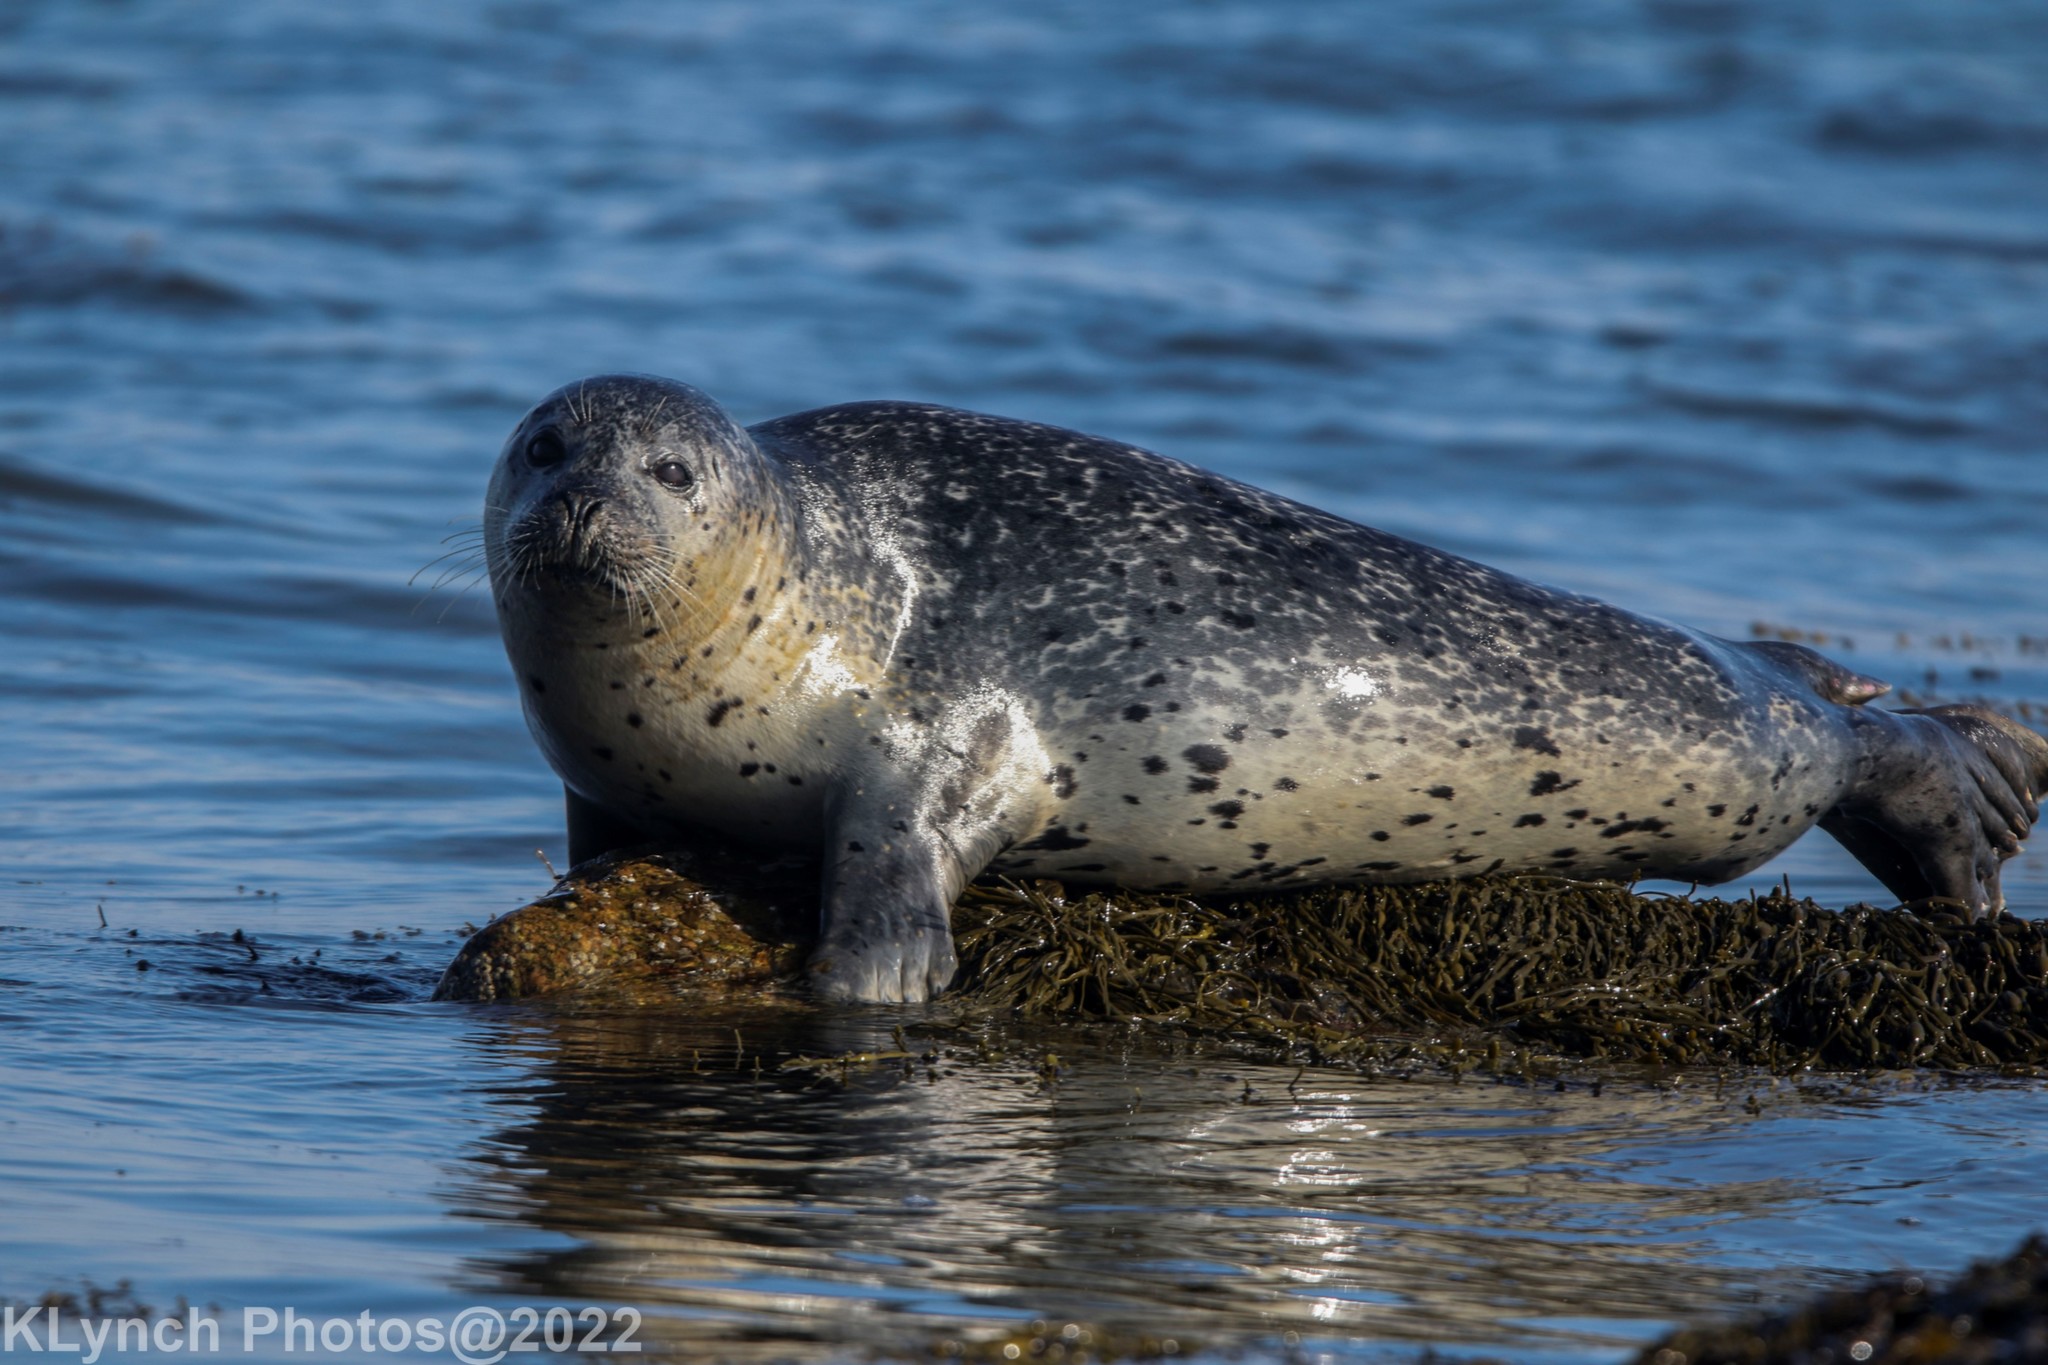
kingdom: Animalia
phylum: Chordata
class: Mammalia
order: Carnivora
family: Phocidae
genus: Phoca
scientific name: Phoca vitulina
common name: Harbor seal
